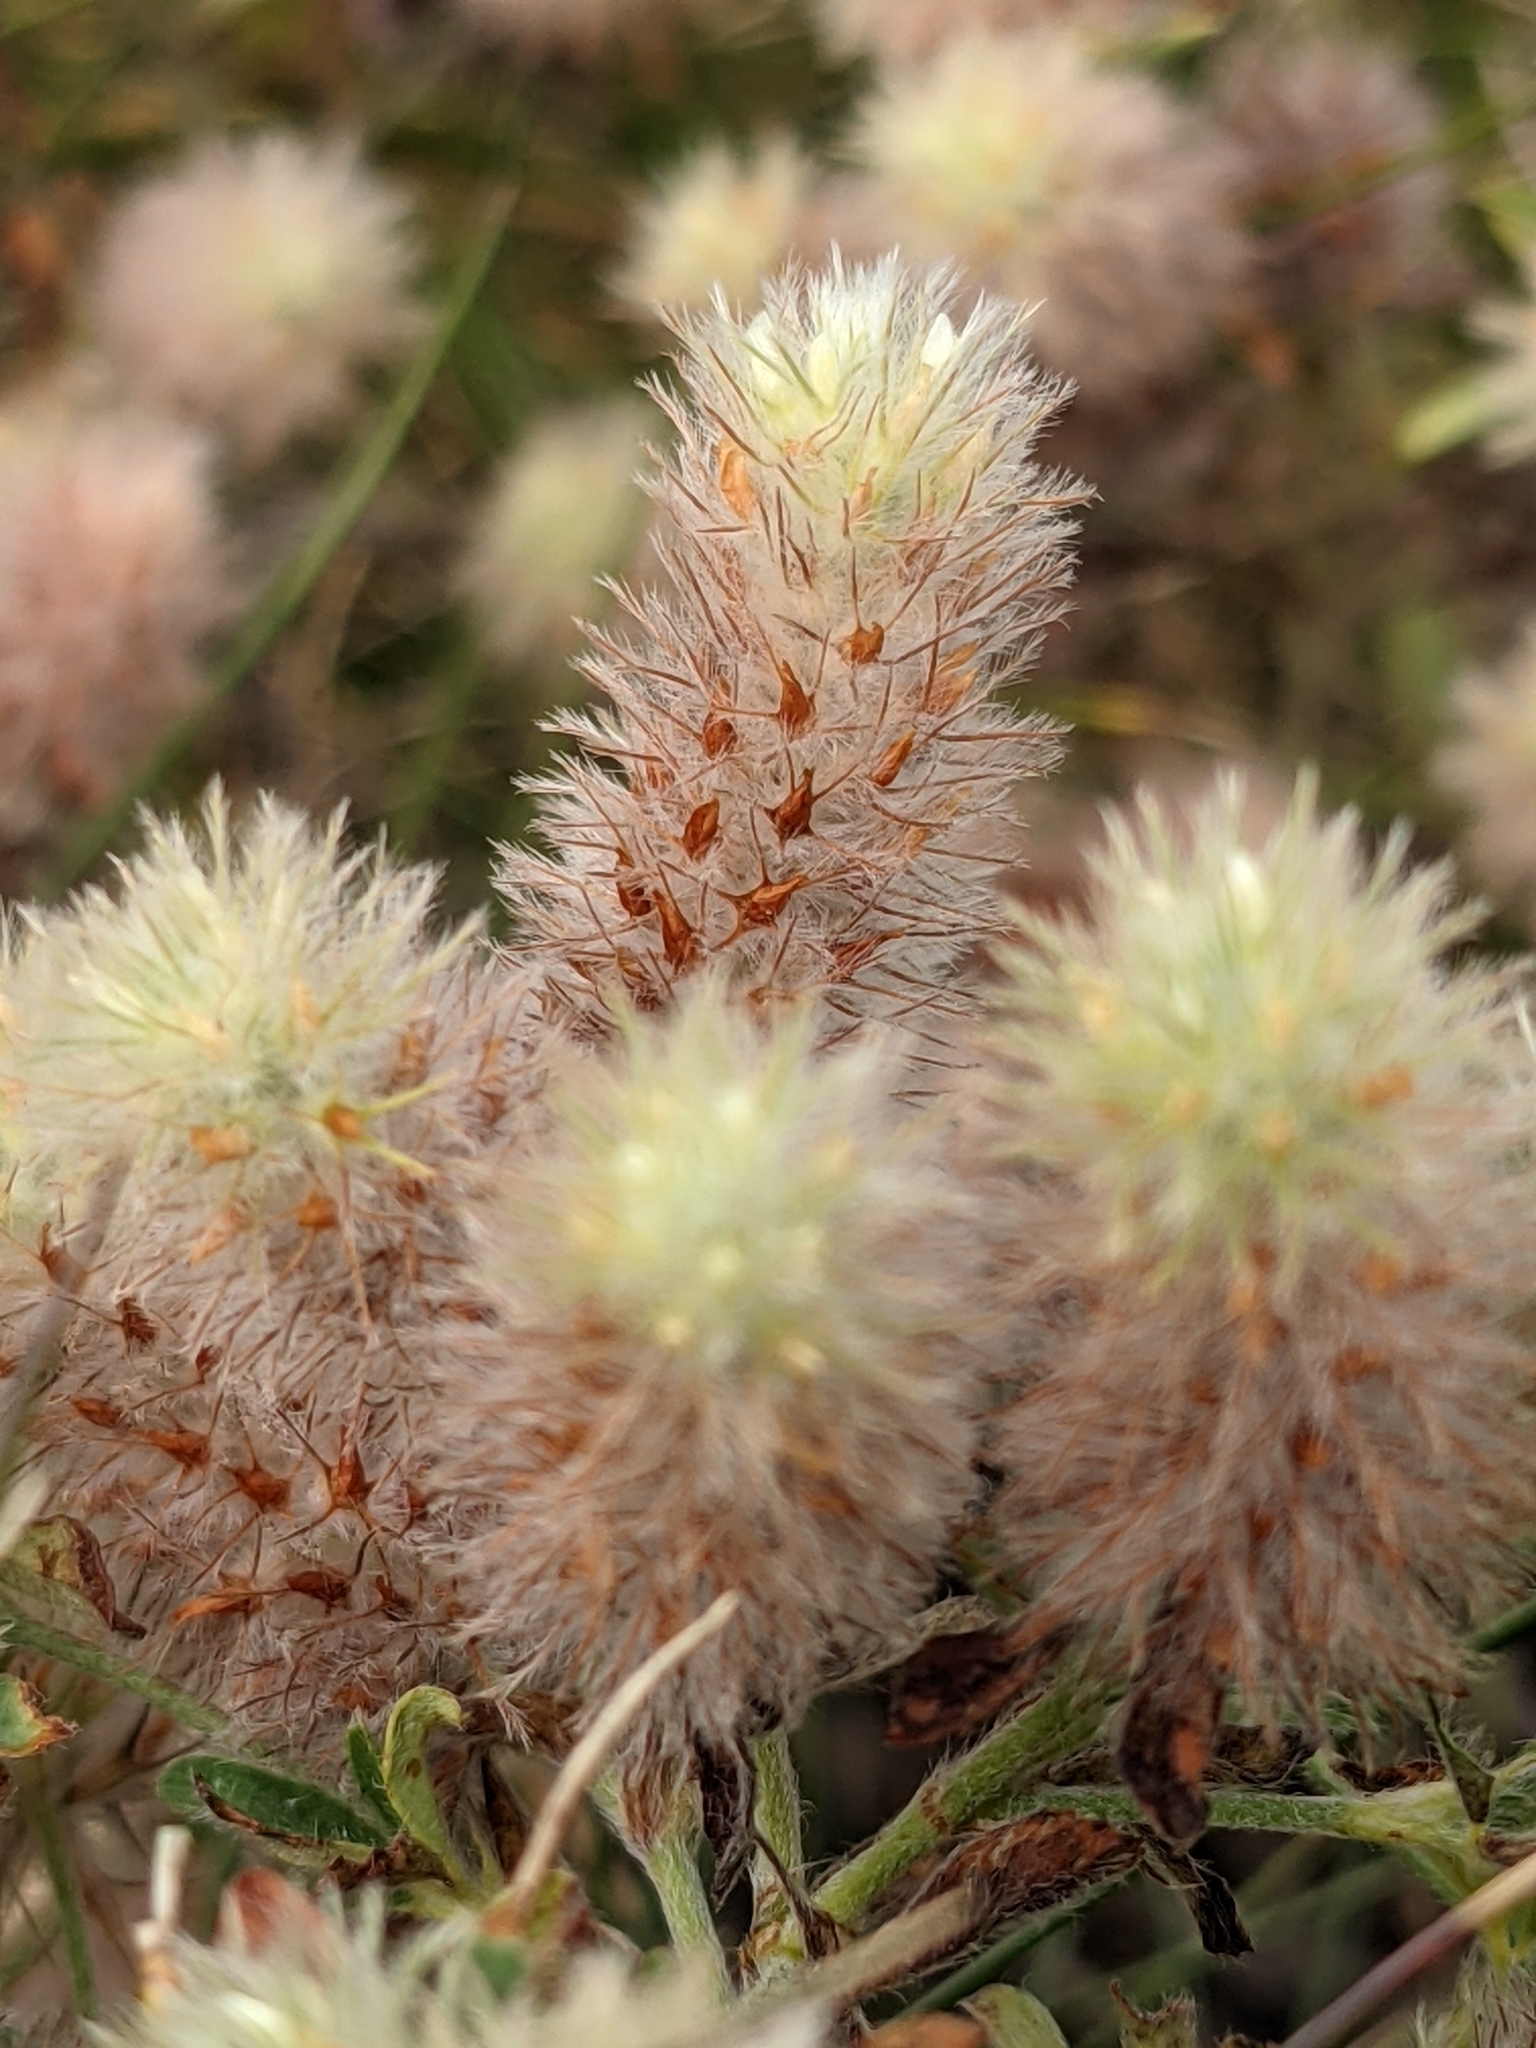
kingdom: Plantae
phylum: Tracheophyta
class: Magnoliopsida
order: Fabales
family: Fabaceae
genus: Trifolium
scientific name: Trifolium arvense
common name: Hare's-foot clover
